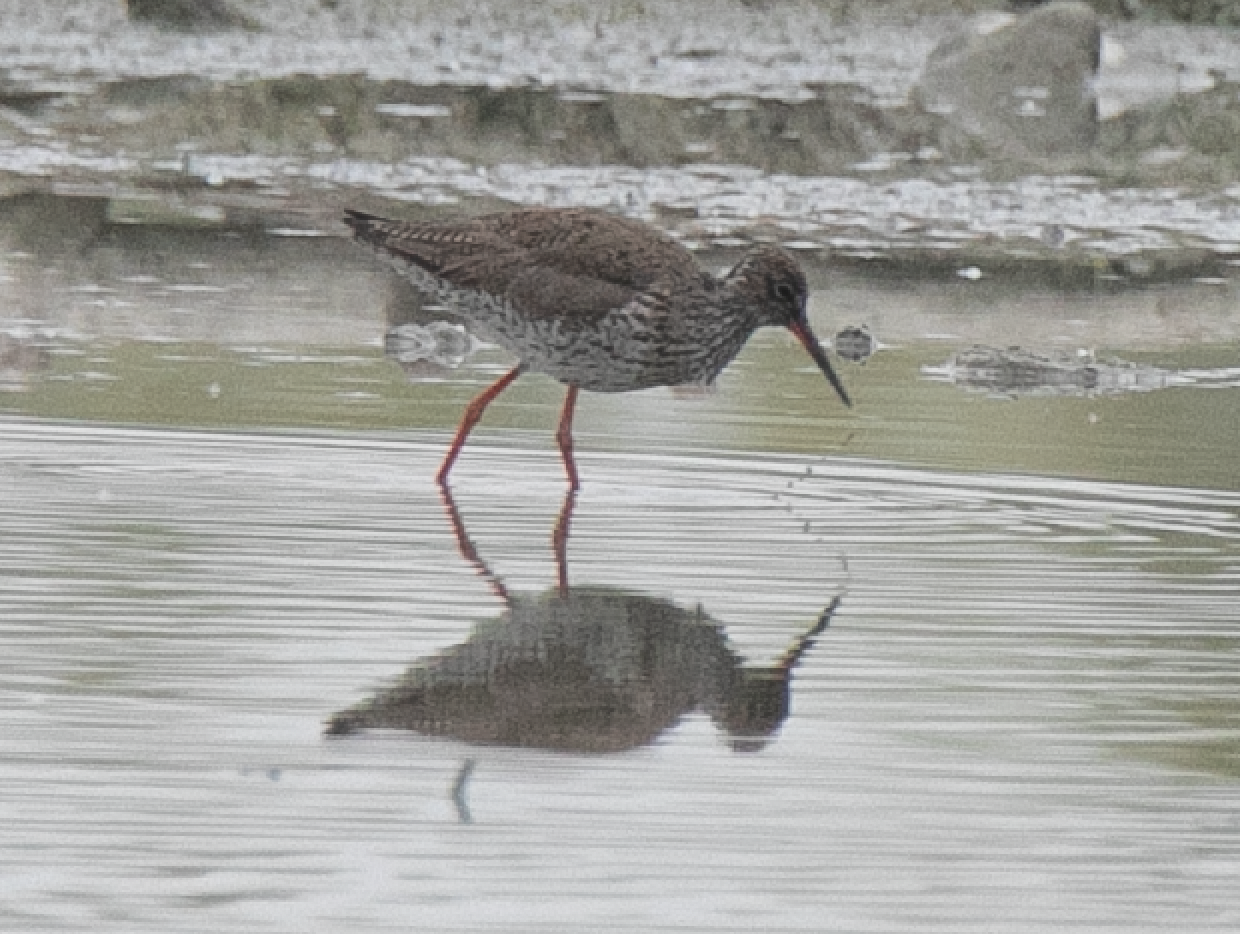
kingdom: Animalia
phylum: Chordata
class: Aves
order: Charadriiformes
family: Scolopacidae
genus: Tringa
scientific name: Tringa totanus
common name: Common redshank
